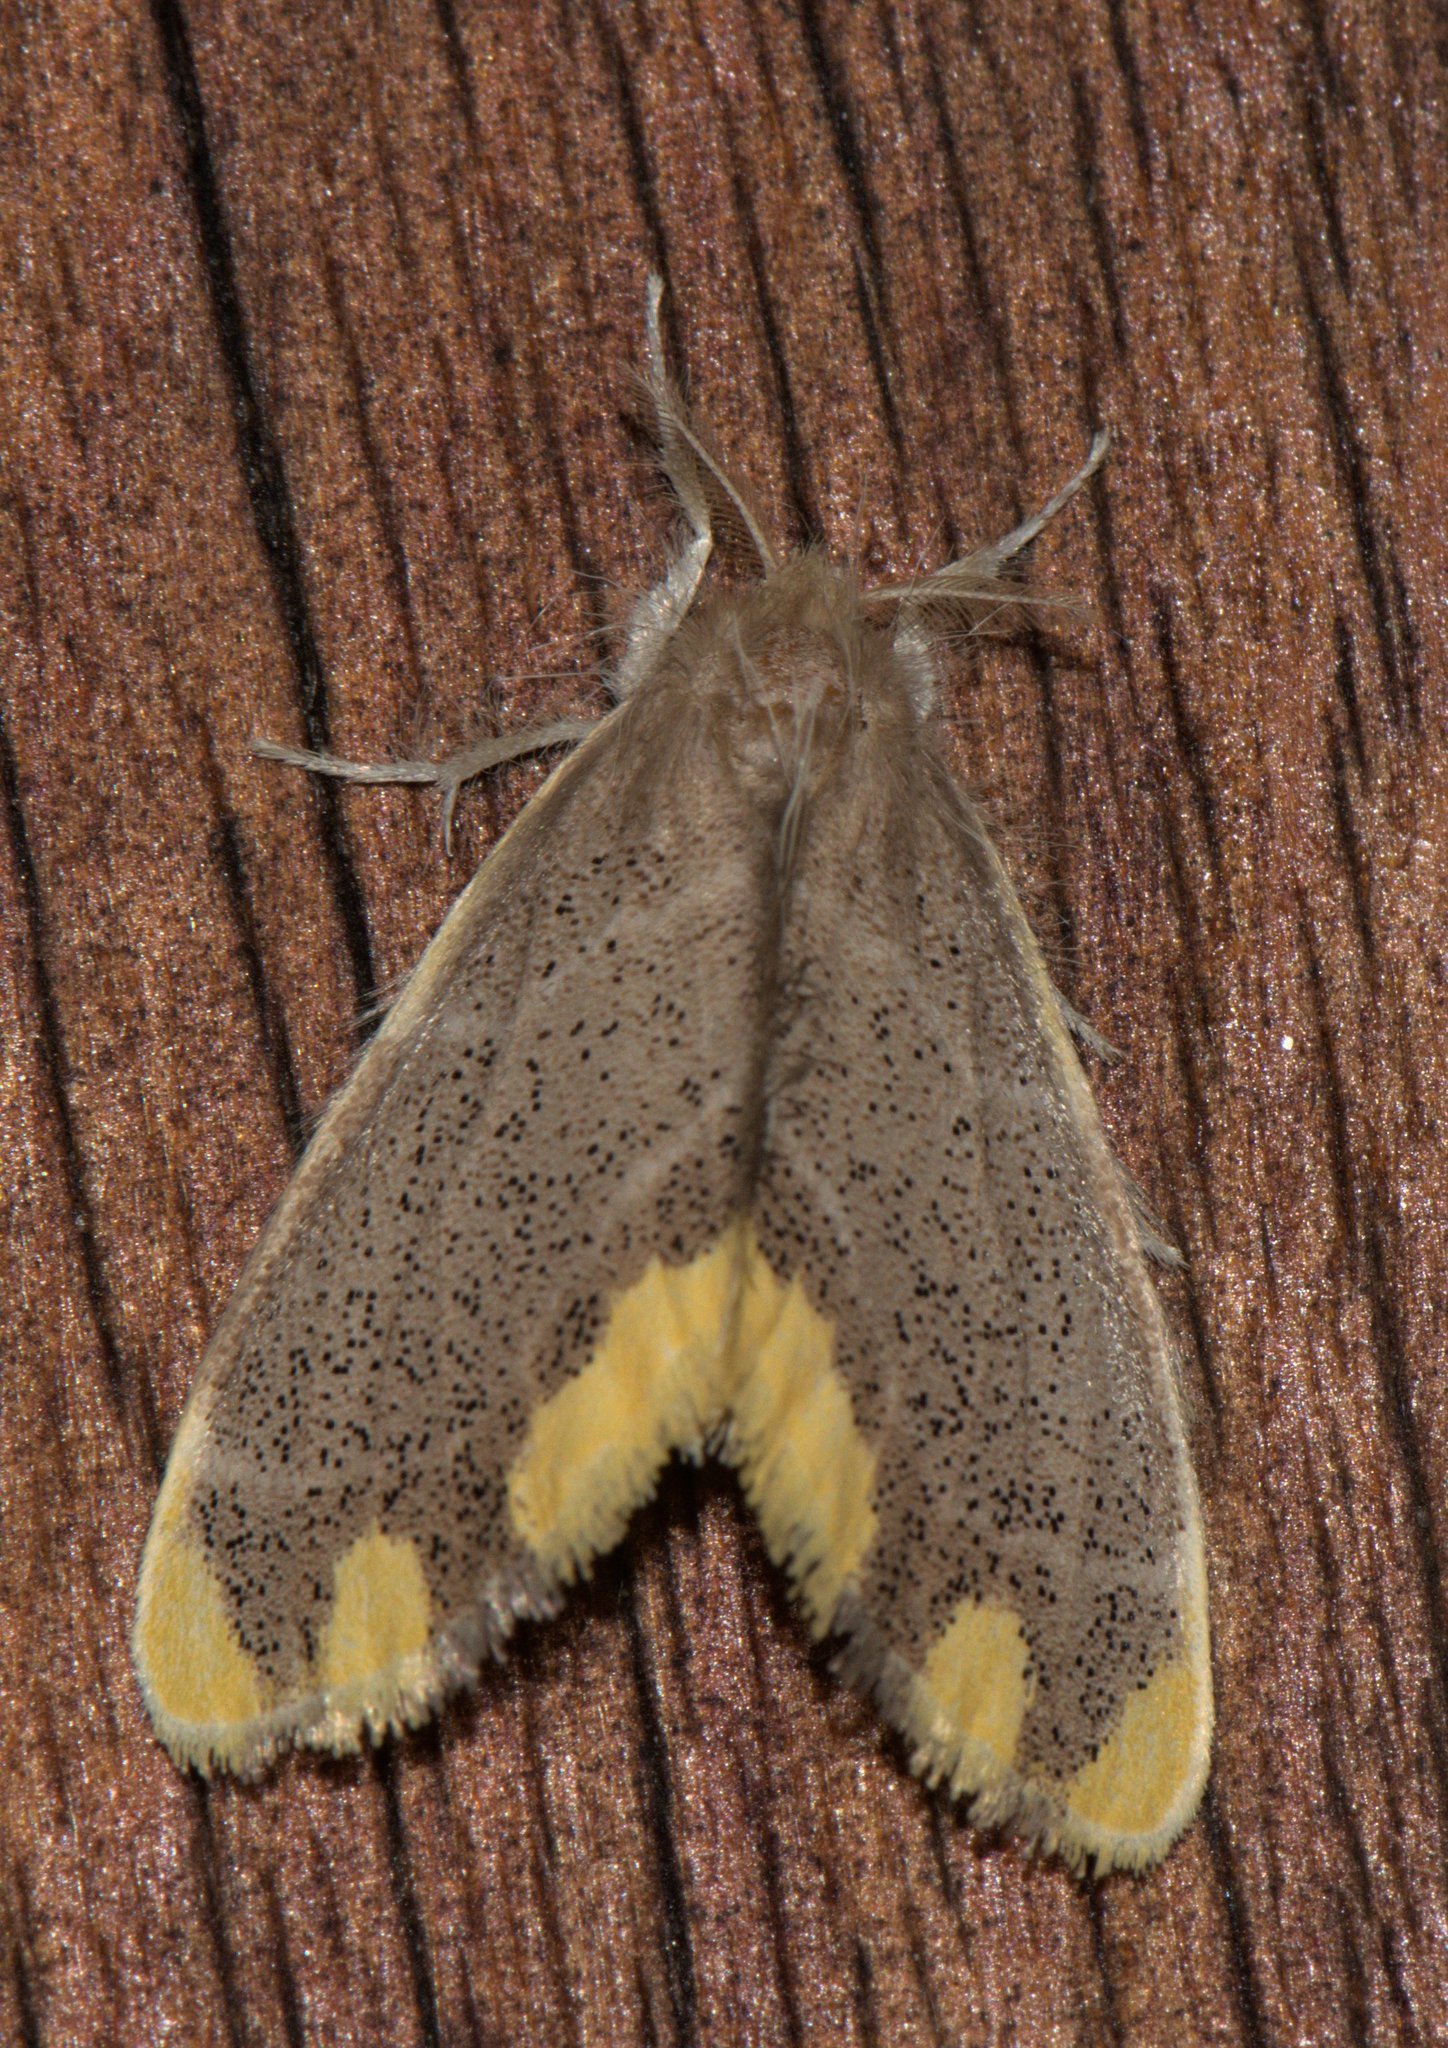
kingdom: Animalia
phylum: Arthropoda
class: Insecta
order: Lepidoptera
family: Erebidae
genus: Orvasca
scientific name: Orvasca subnotata
